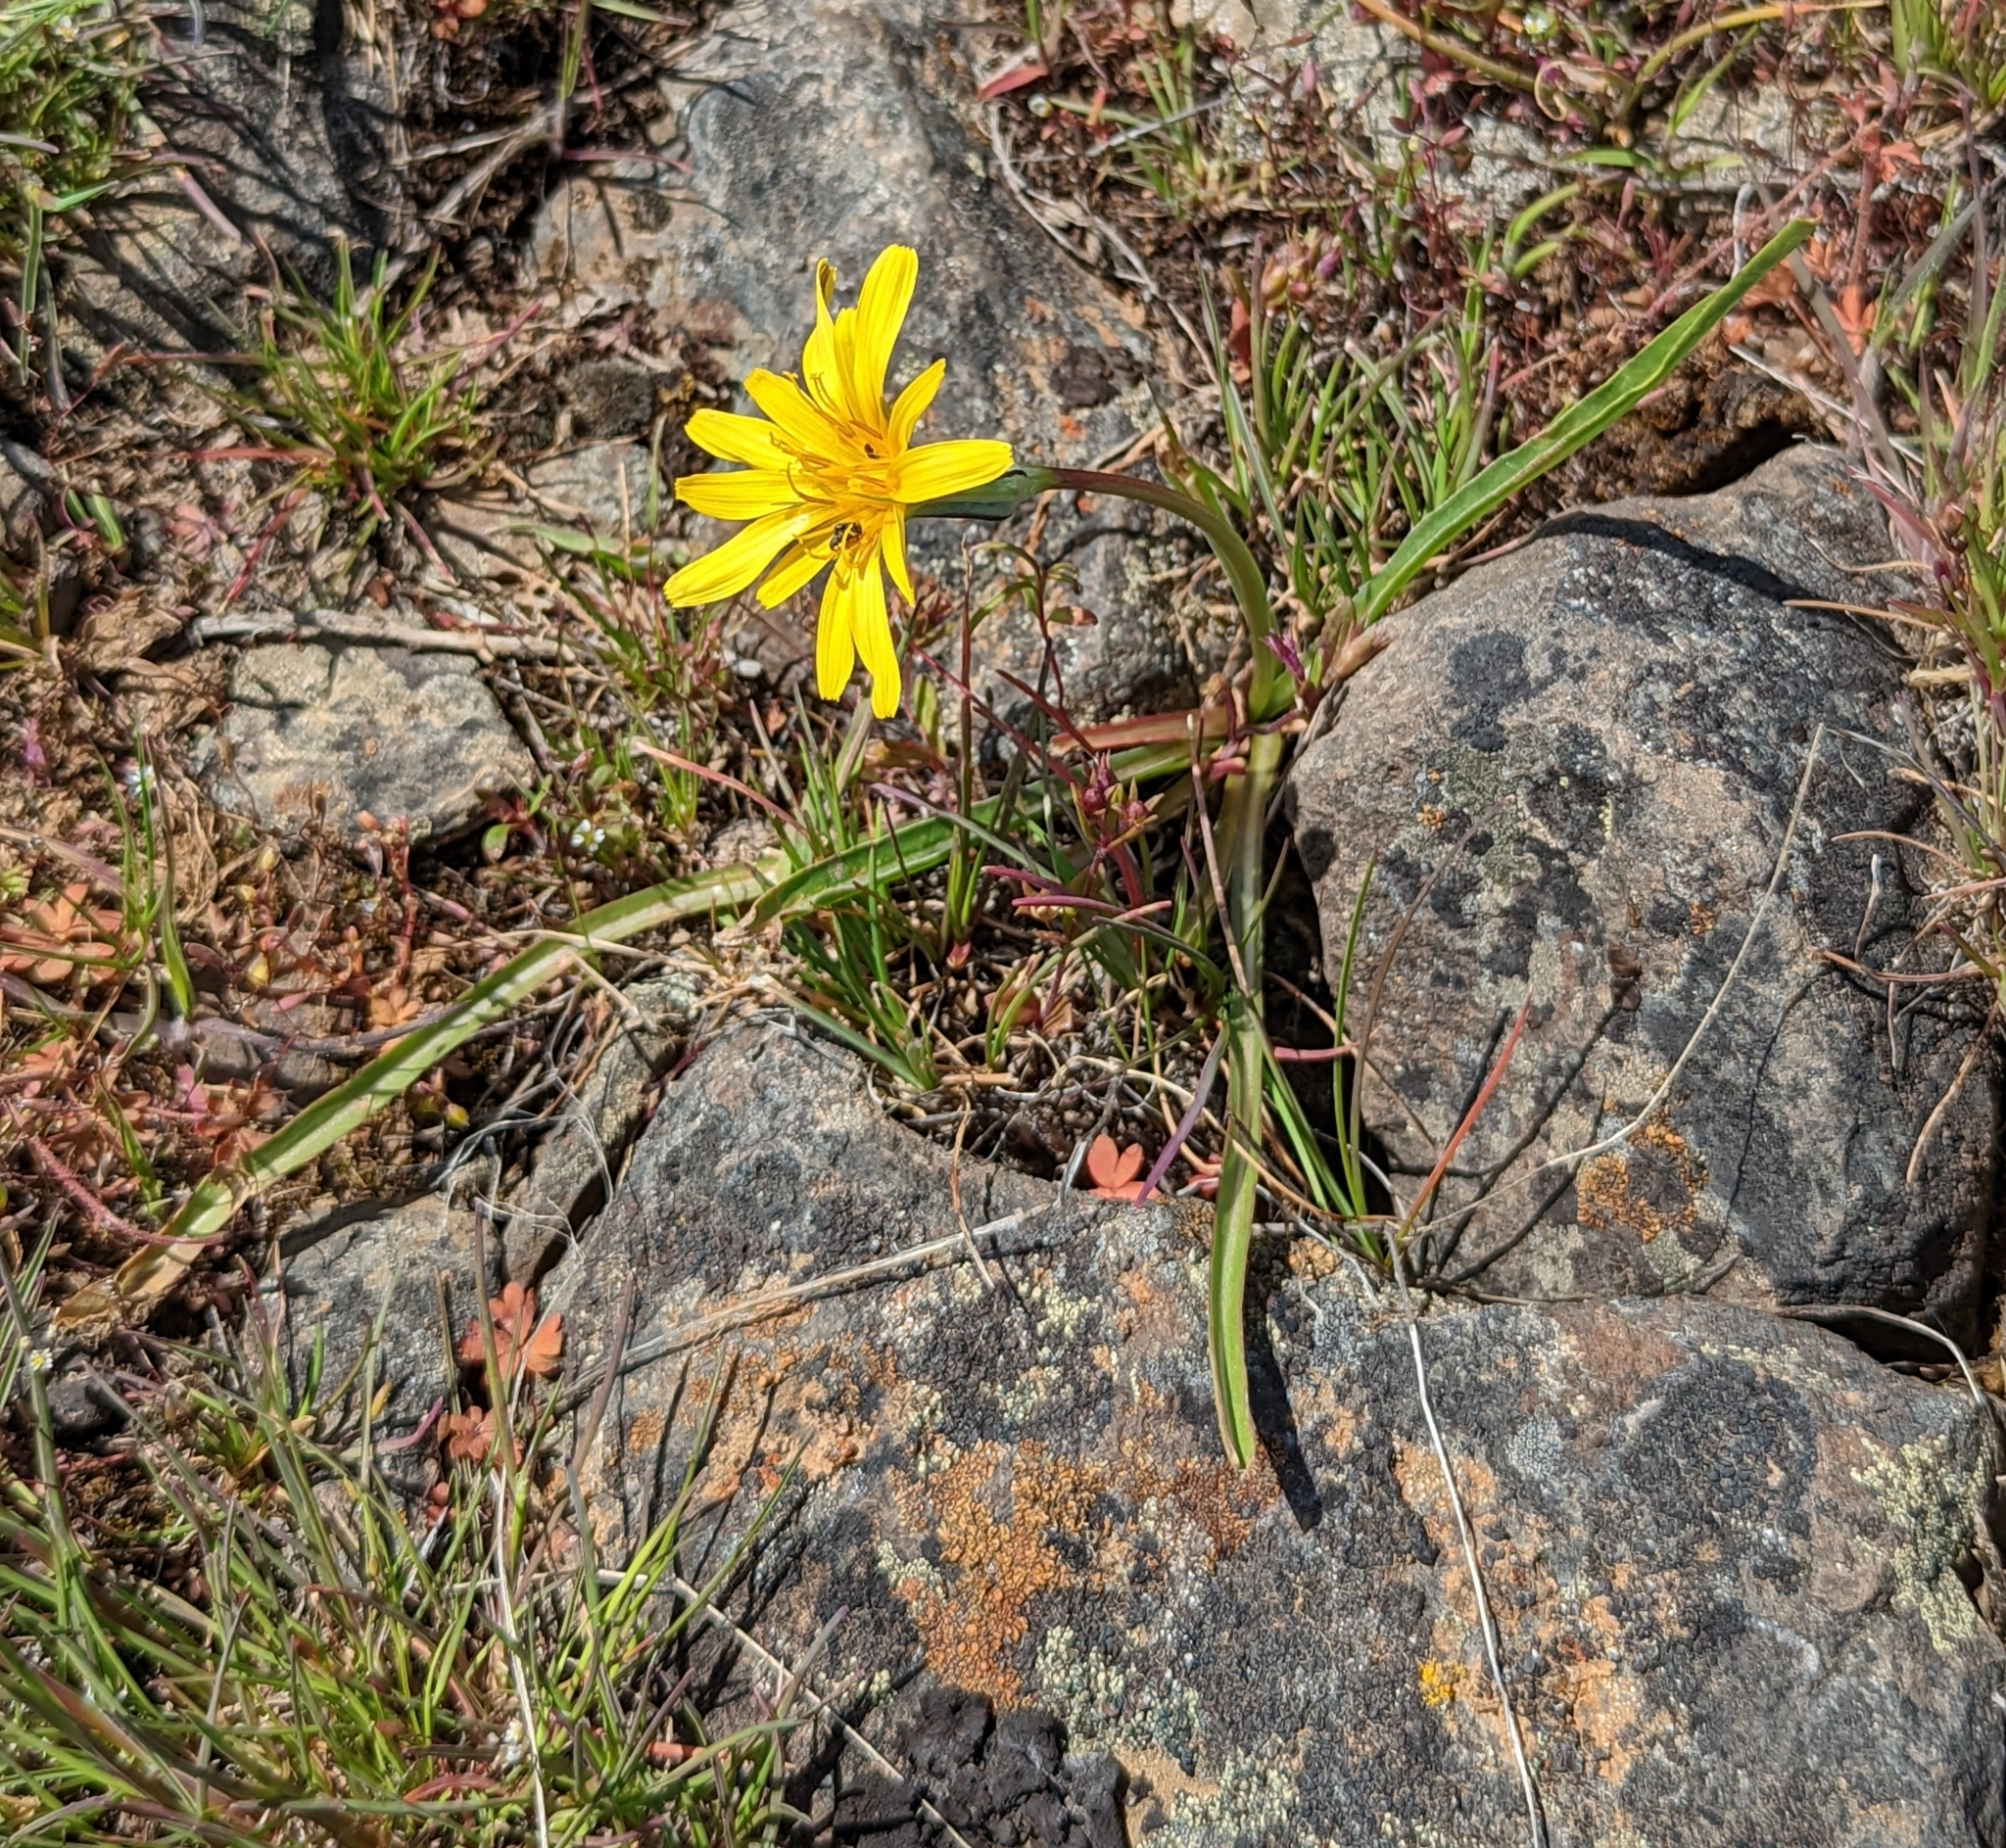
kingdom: Plantae
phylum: Tracheophyta
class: Magnoliopsida
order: Asterales
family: Asteraceae
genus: Microseris
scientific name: Microseris troximoides
